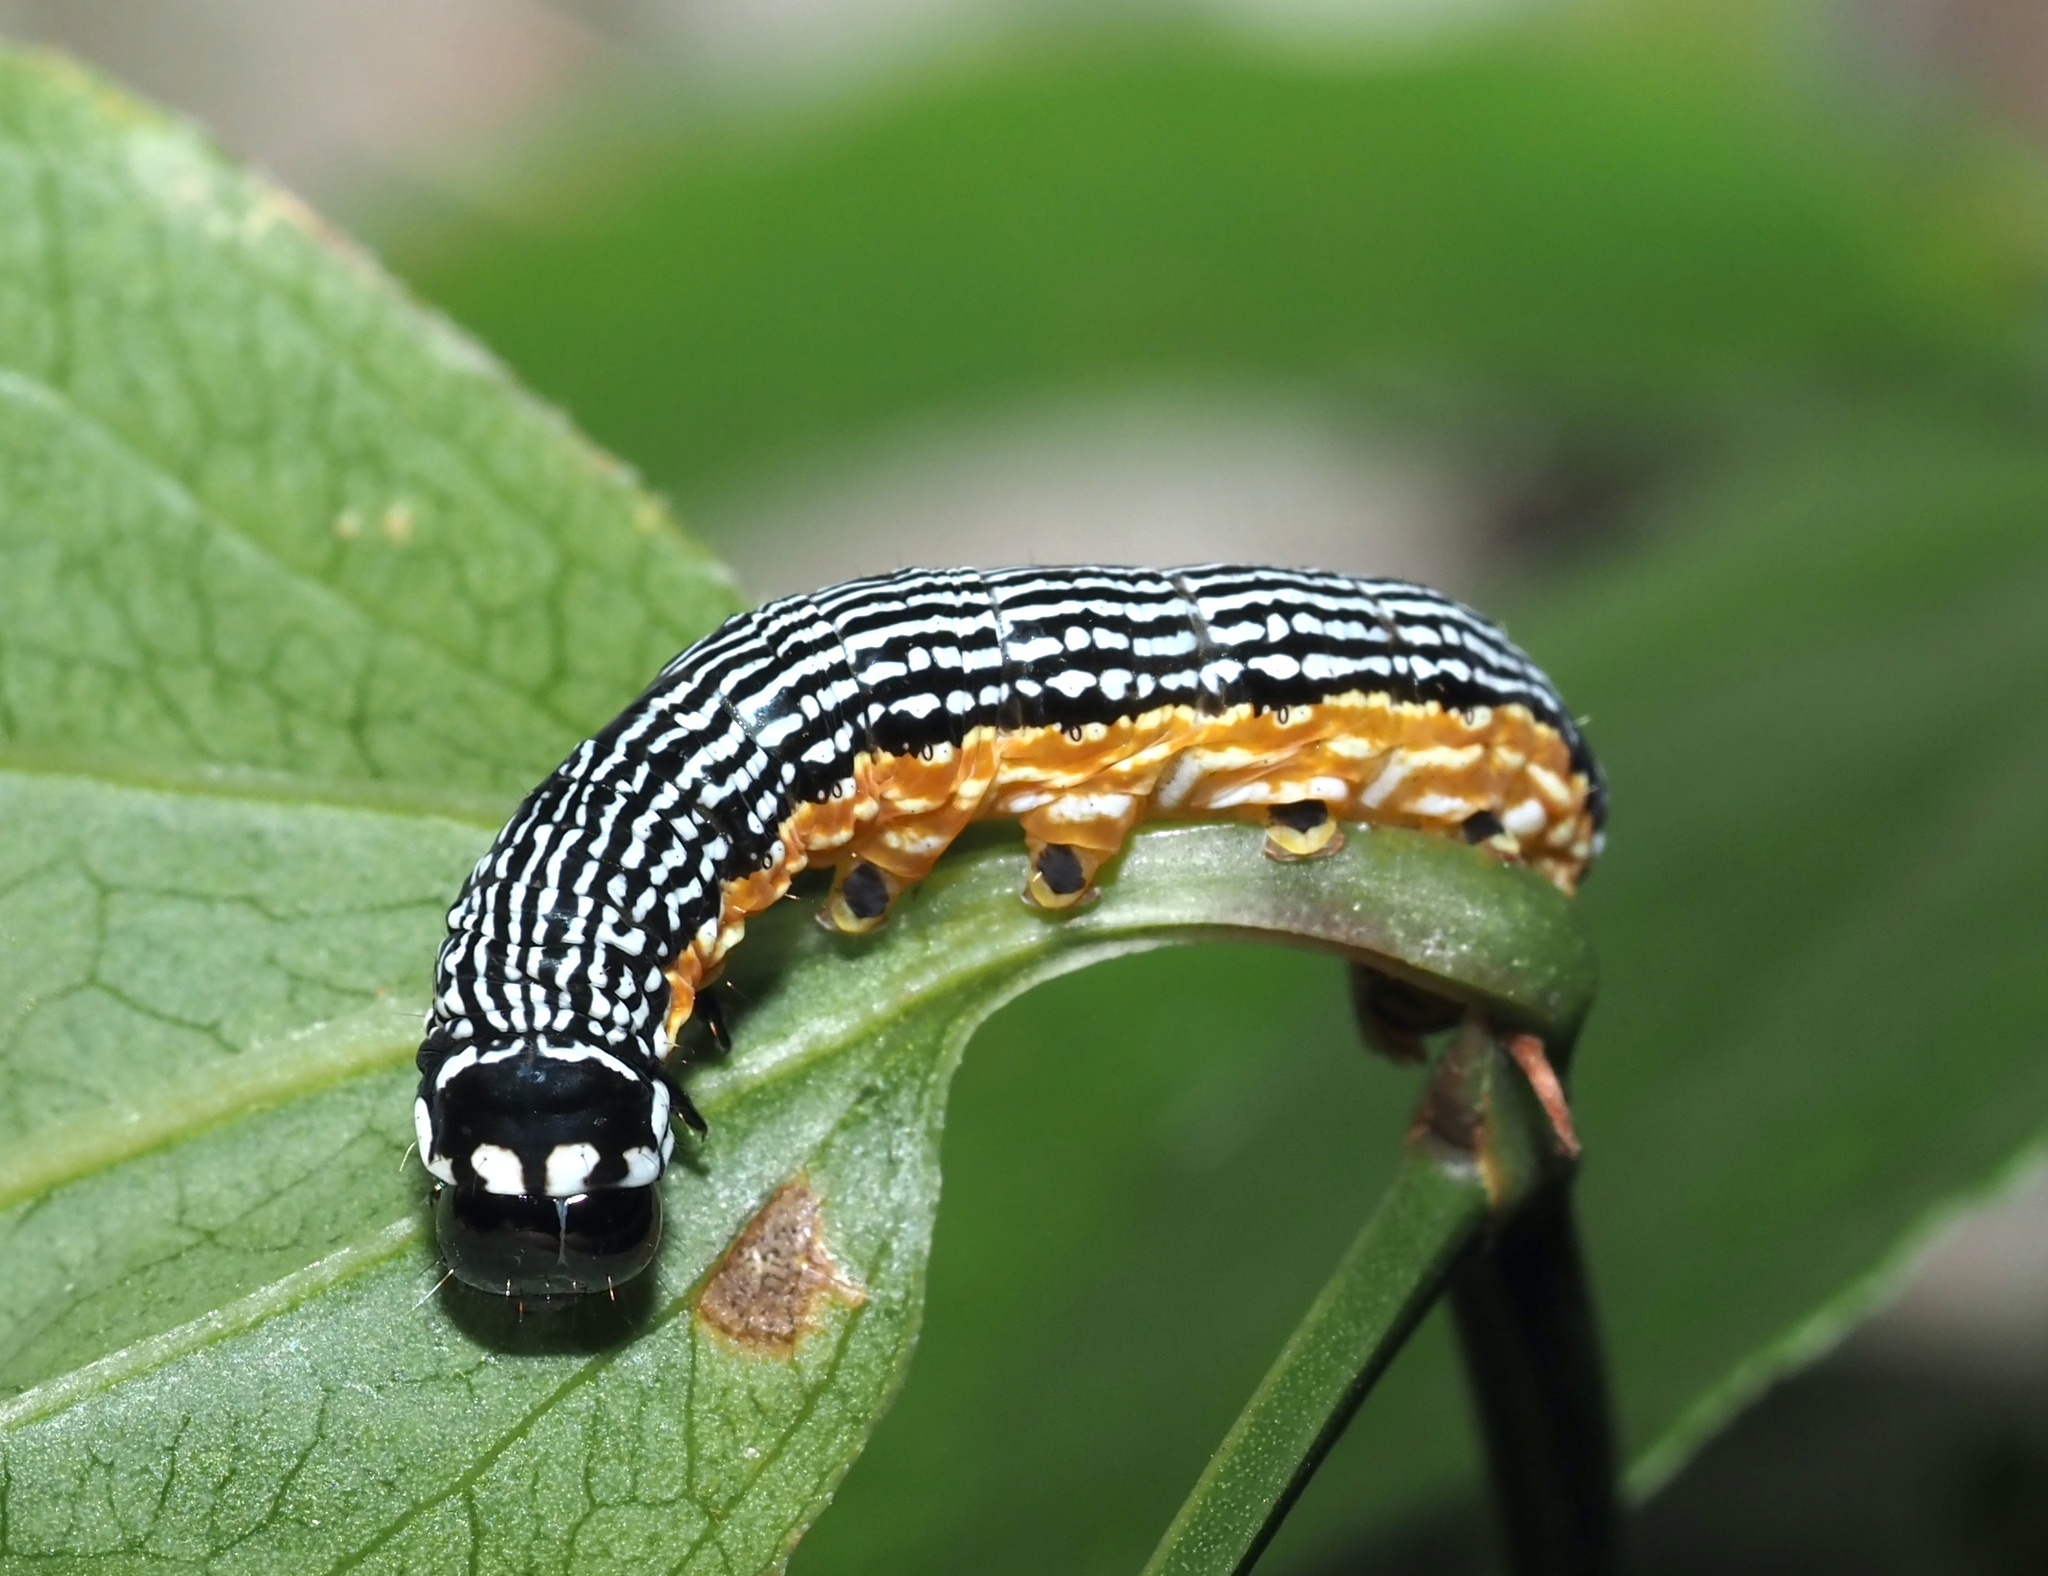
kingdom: Animalia
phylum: Arthropoda
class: Insecta
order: Lepidoptera
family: Noctuidae
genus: Phosphila
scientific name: Phosphila turbulenta
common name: Turbulent phosphila moth
